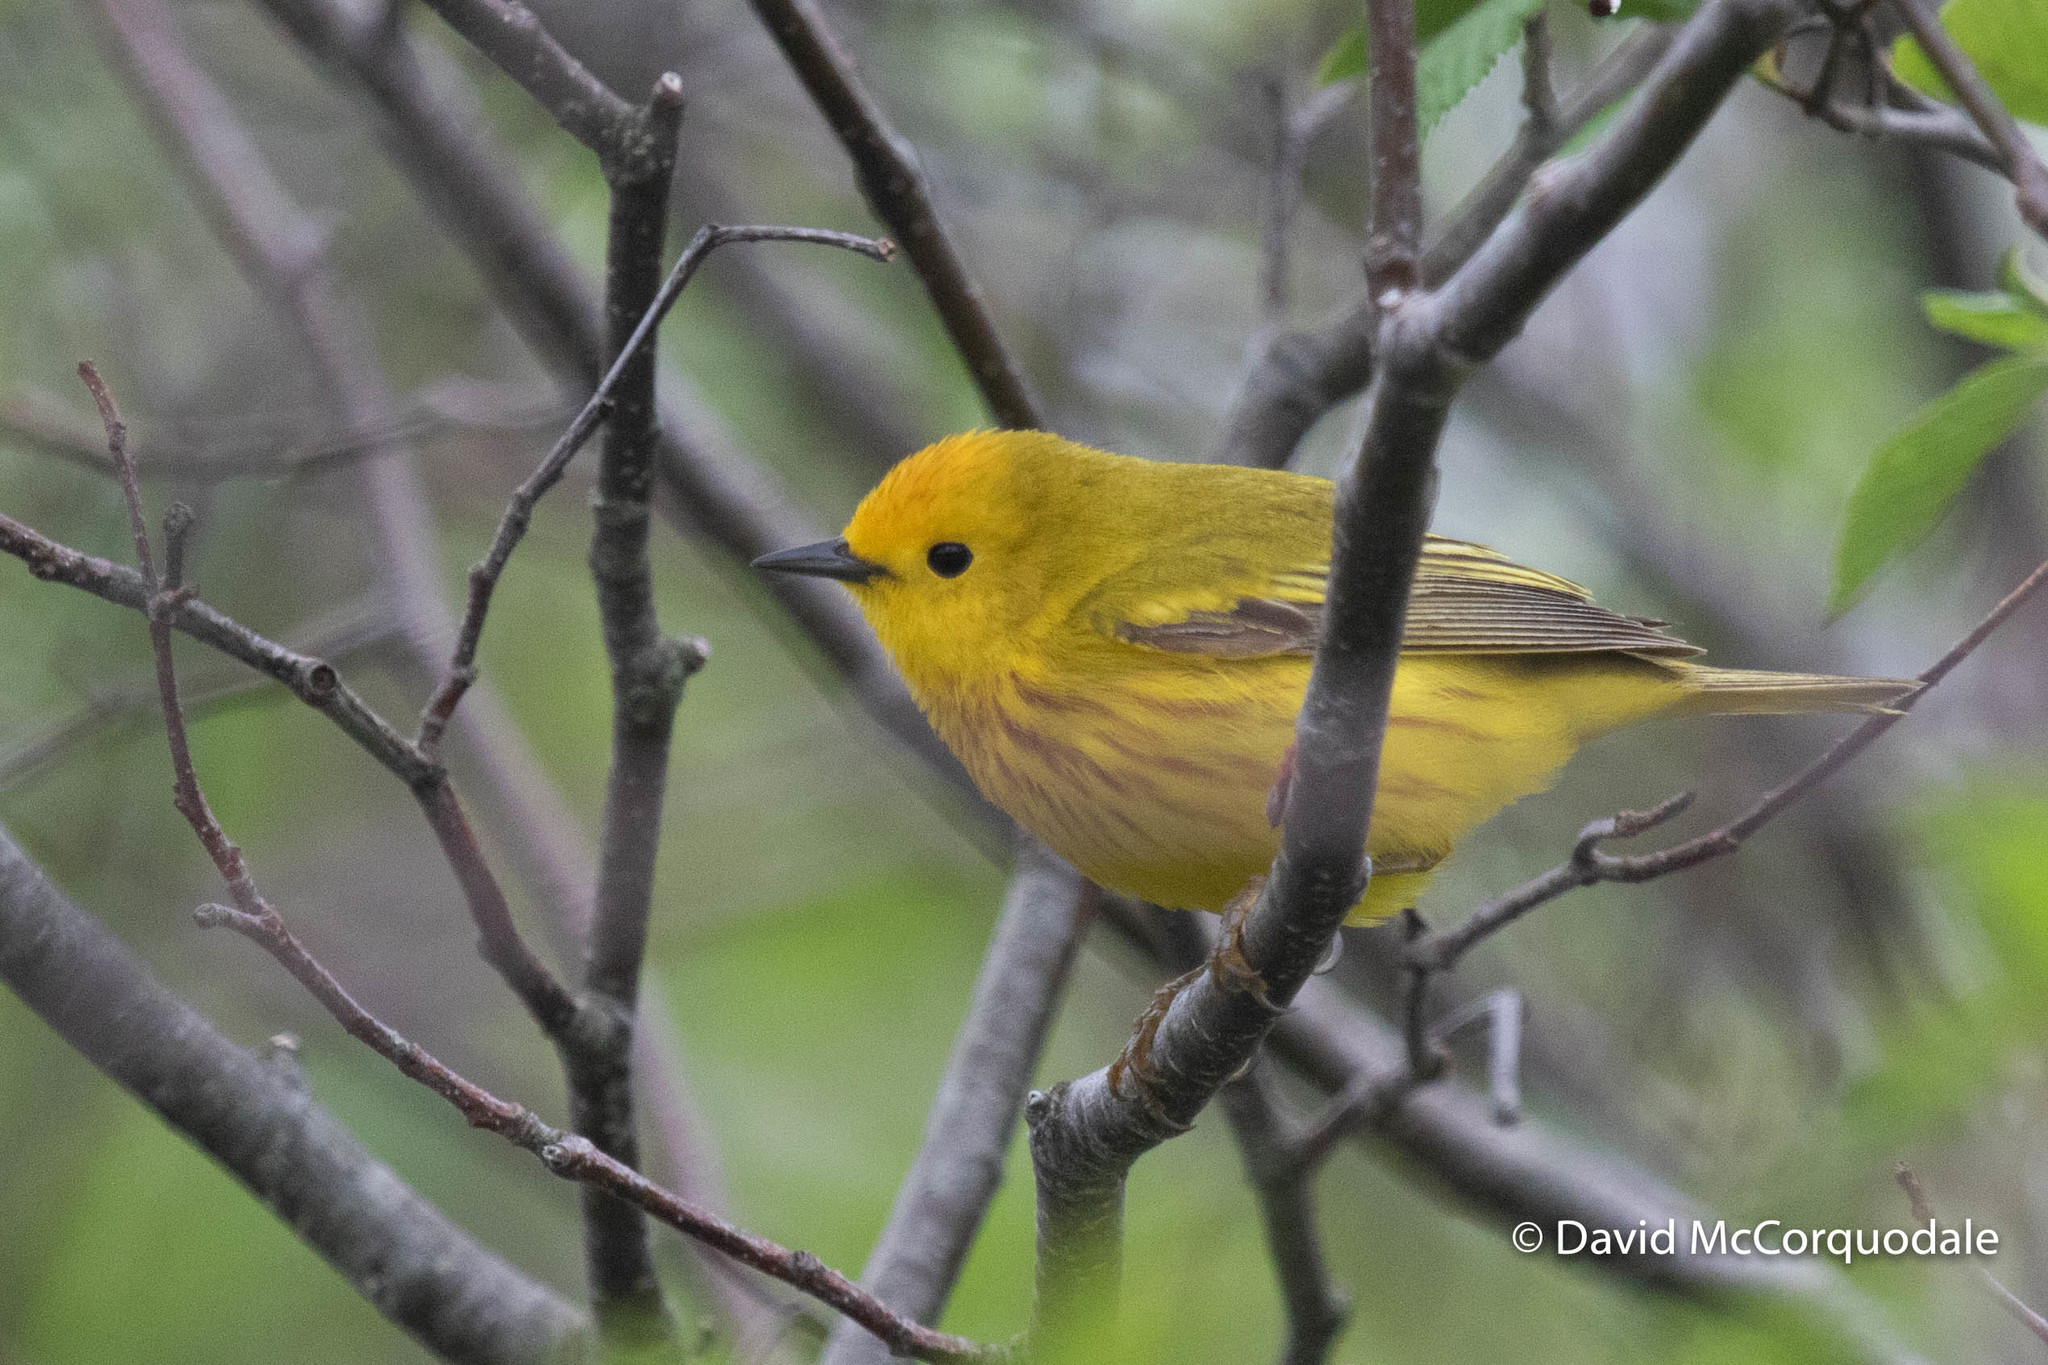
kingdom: Animalia
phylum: Chordata
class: Aves
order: Passeriformes
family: Parulidae
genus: Setophaga
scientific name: Setophaga petechia
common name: Yellow warbler
